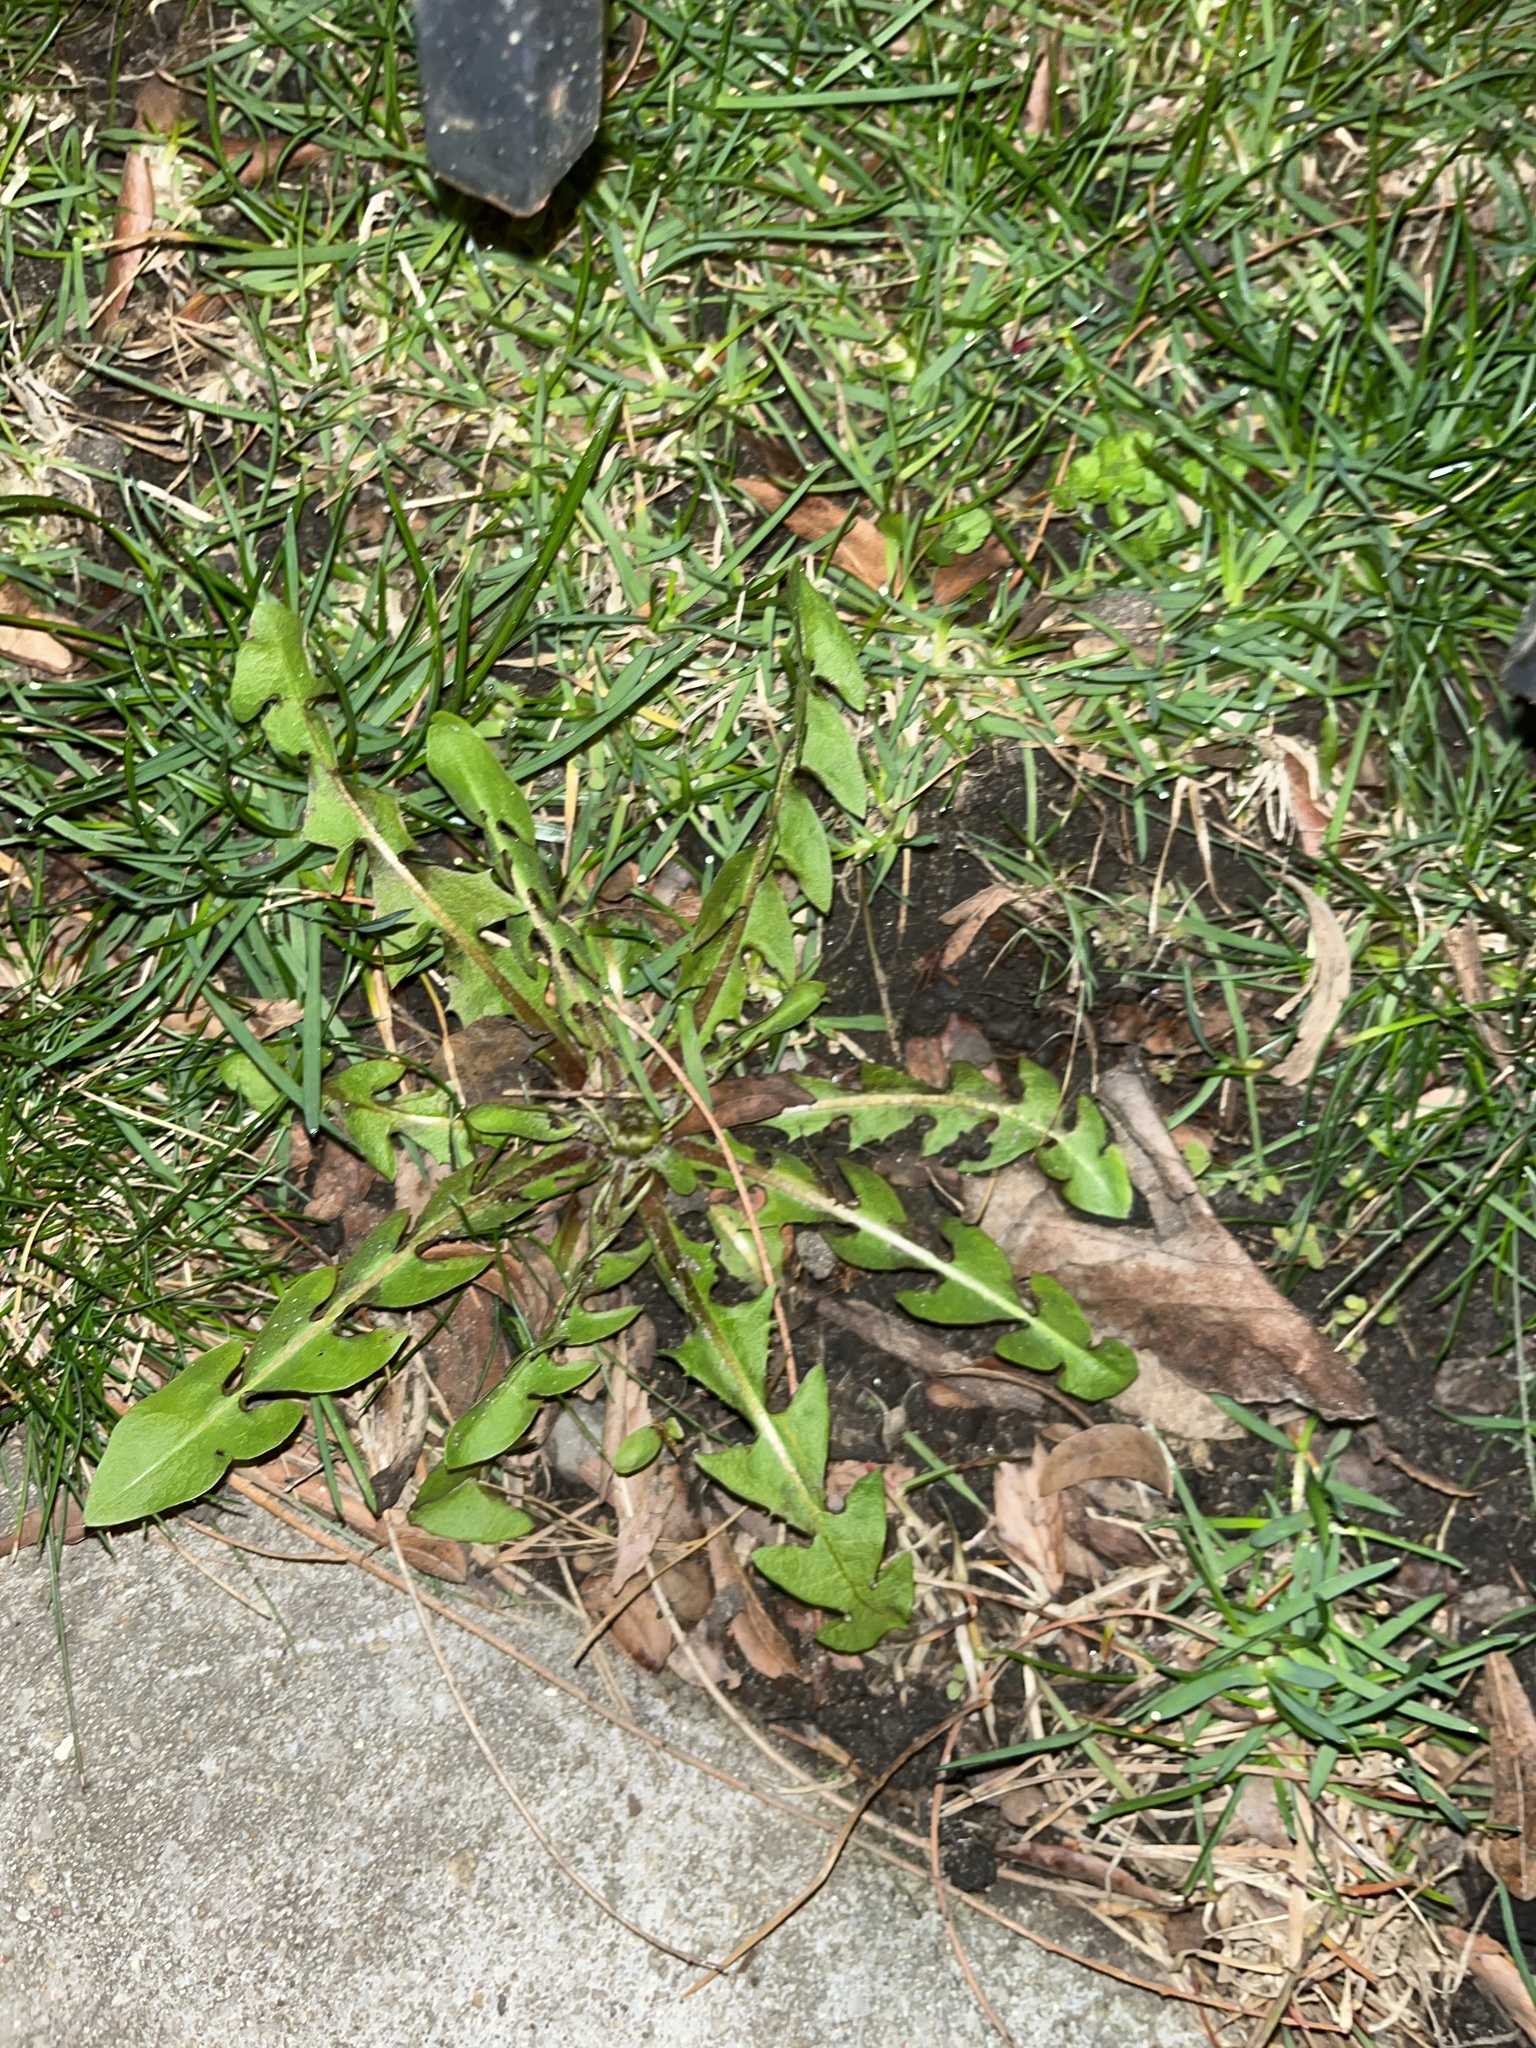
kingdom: Plantae
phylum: Tracheophyta
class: Magnoliopsida
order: Asterales
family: Asteraceae
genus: Taraxacum
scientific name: Taraxacum officinale
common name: Common dandelion
